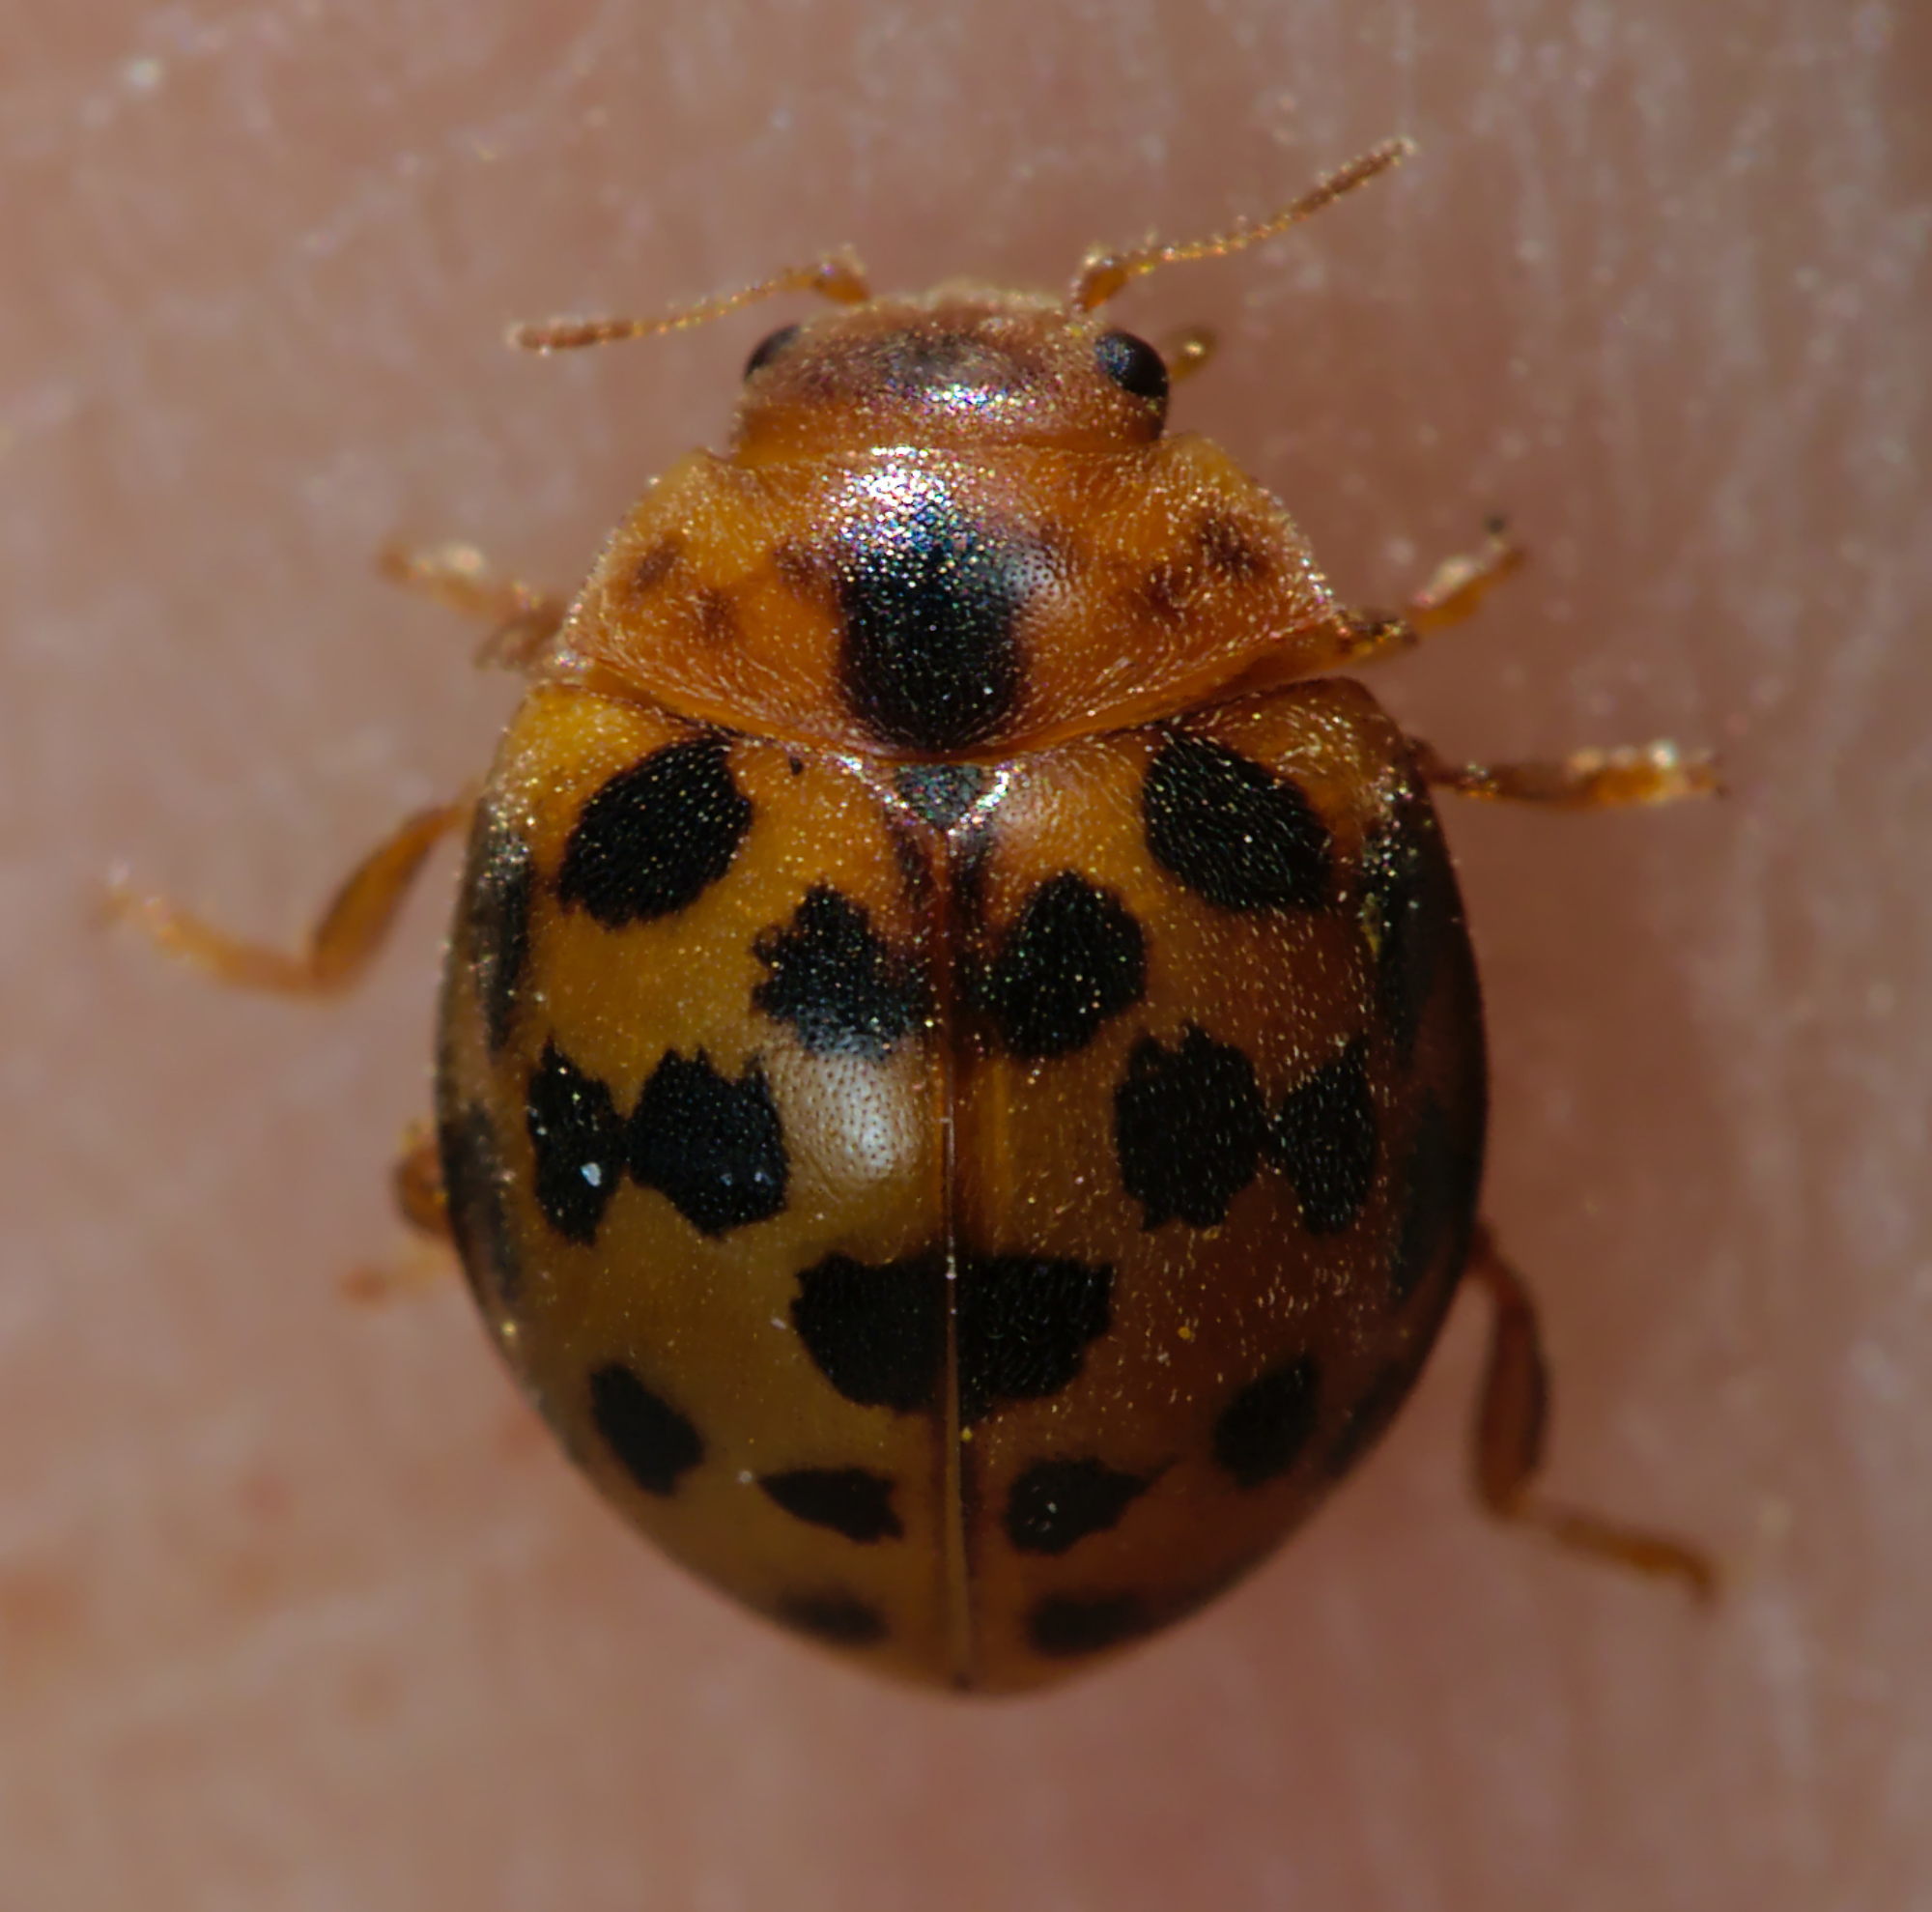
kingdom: Animalia
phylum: Arthropoda
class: Insecta
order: Coleoptera
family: Coccinellidae
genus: Subcoccinella
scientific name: Subcoccinella vigintiquatuorpunctata
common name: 24-spot ladybird
